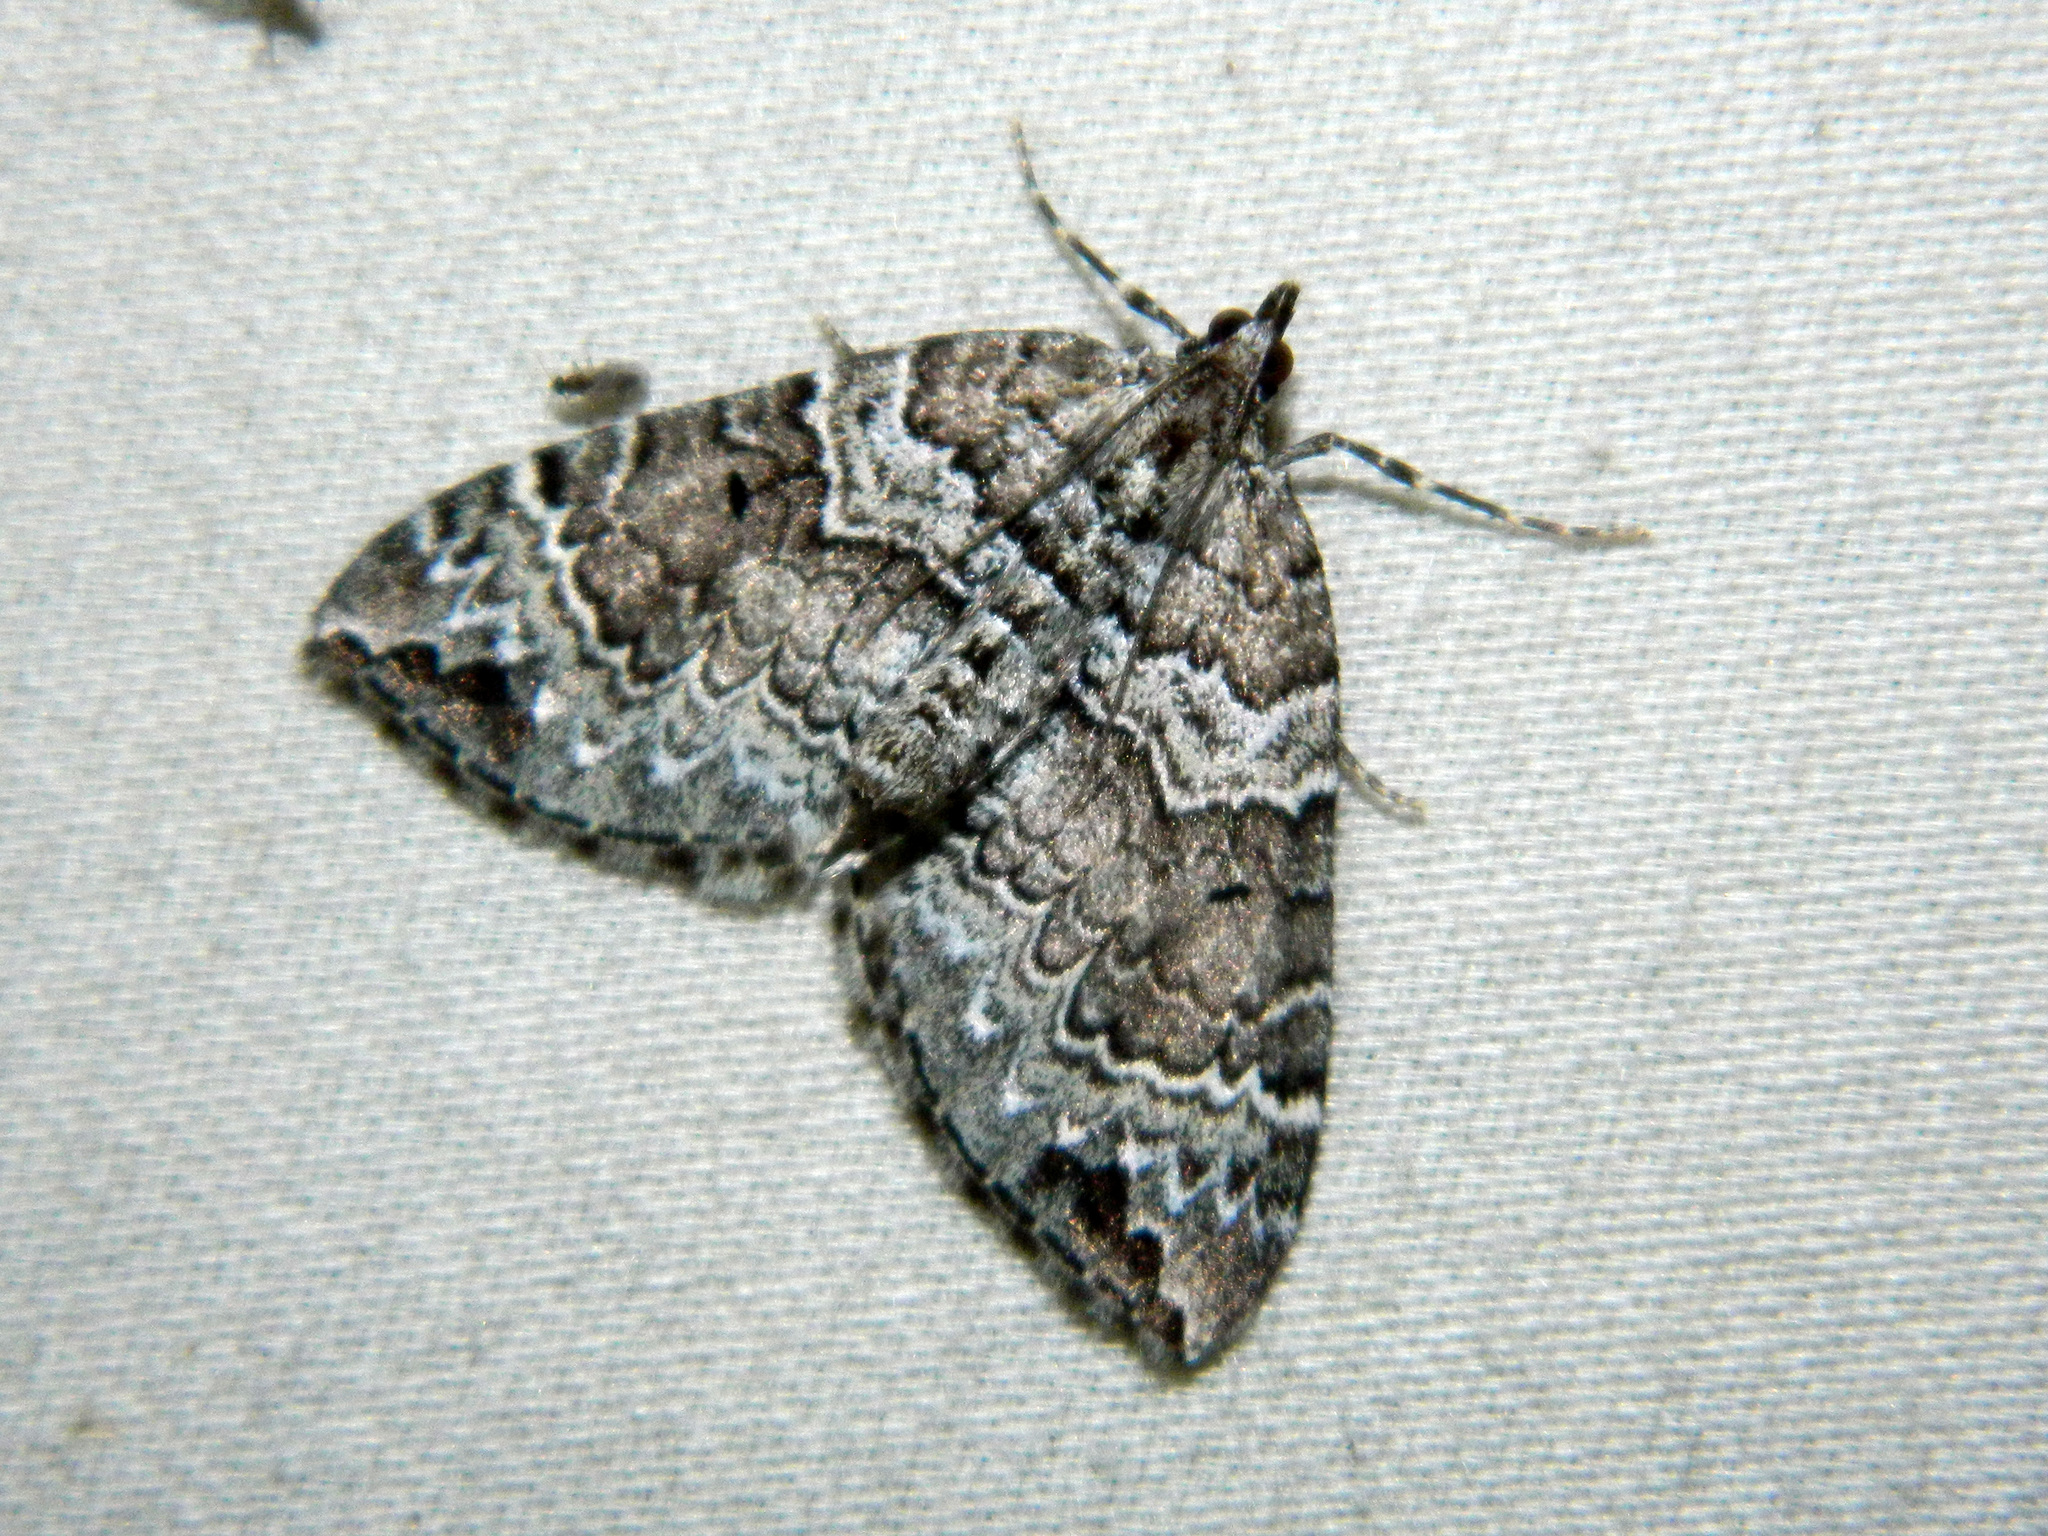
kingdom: Animalia
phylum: Arthropoda
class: Insecta
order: Lepidoptera
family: Geometridae
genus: Eulithis
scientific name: Eulithis explanata
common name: White eulithis
